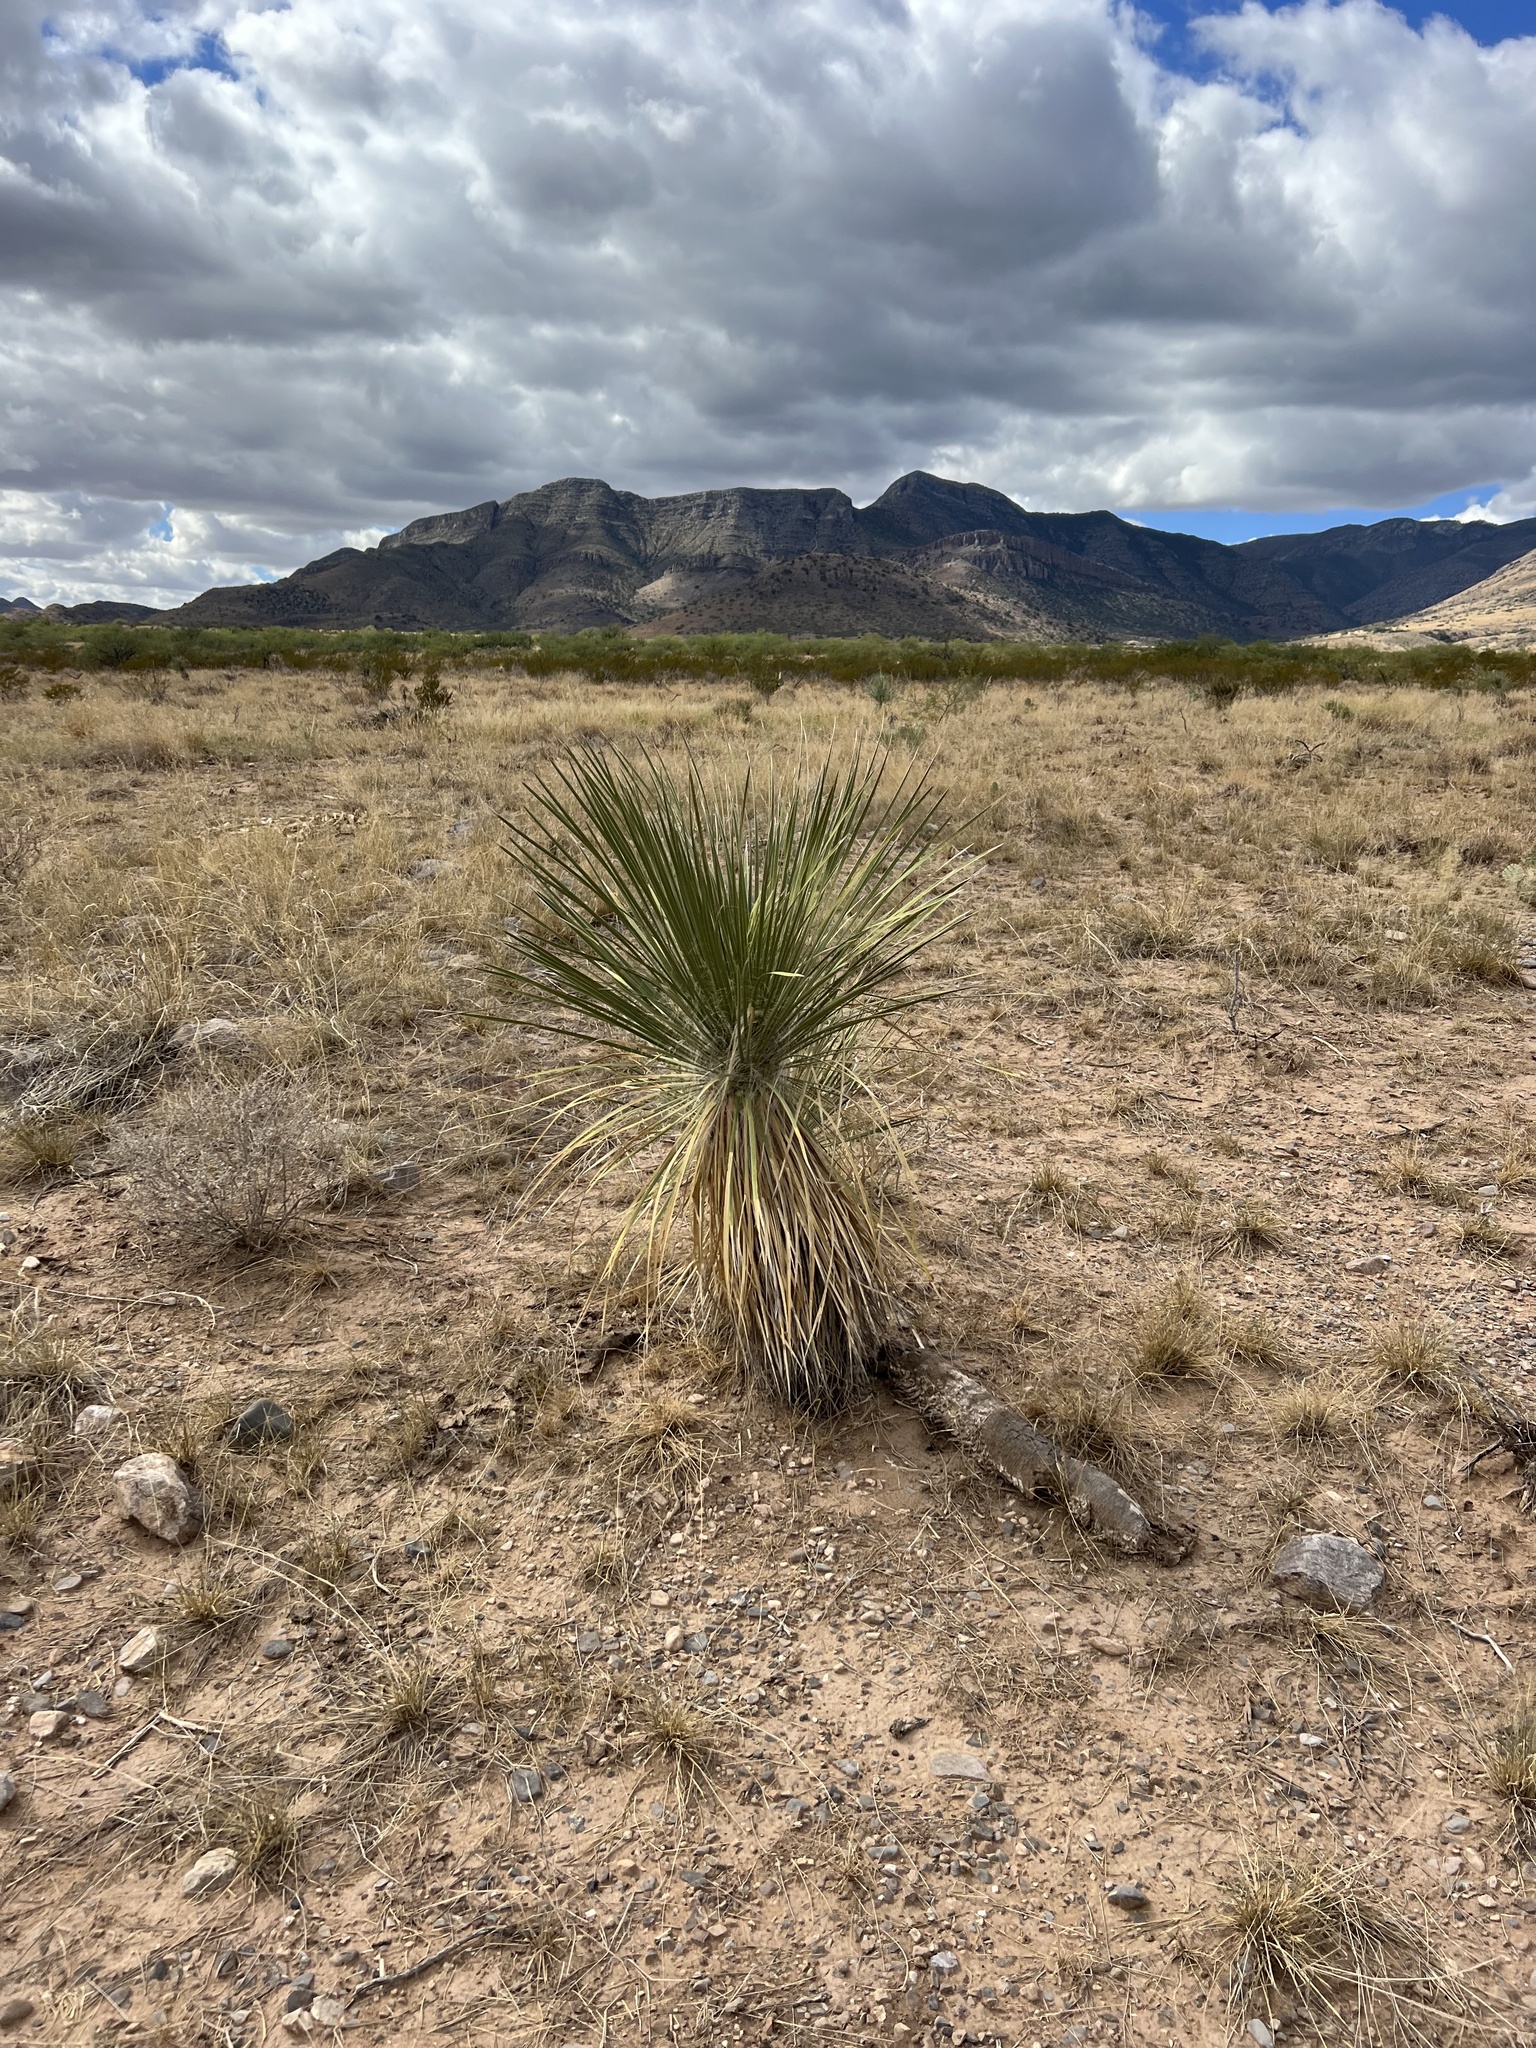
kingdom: Plantae
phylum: Tracheophyta
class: Liliopsida
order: Asparagales
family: Asparagaceae
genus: Yucca
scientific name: Yucca elata
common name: Palmella
